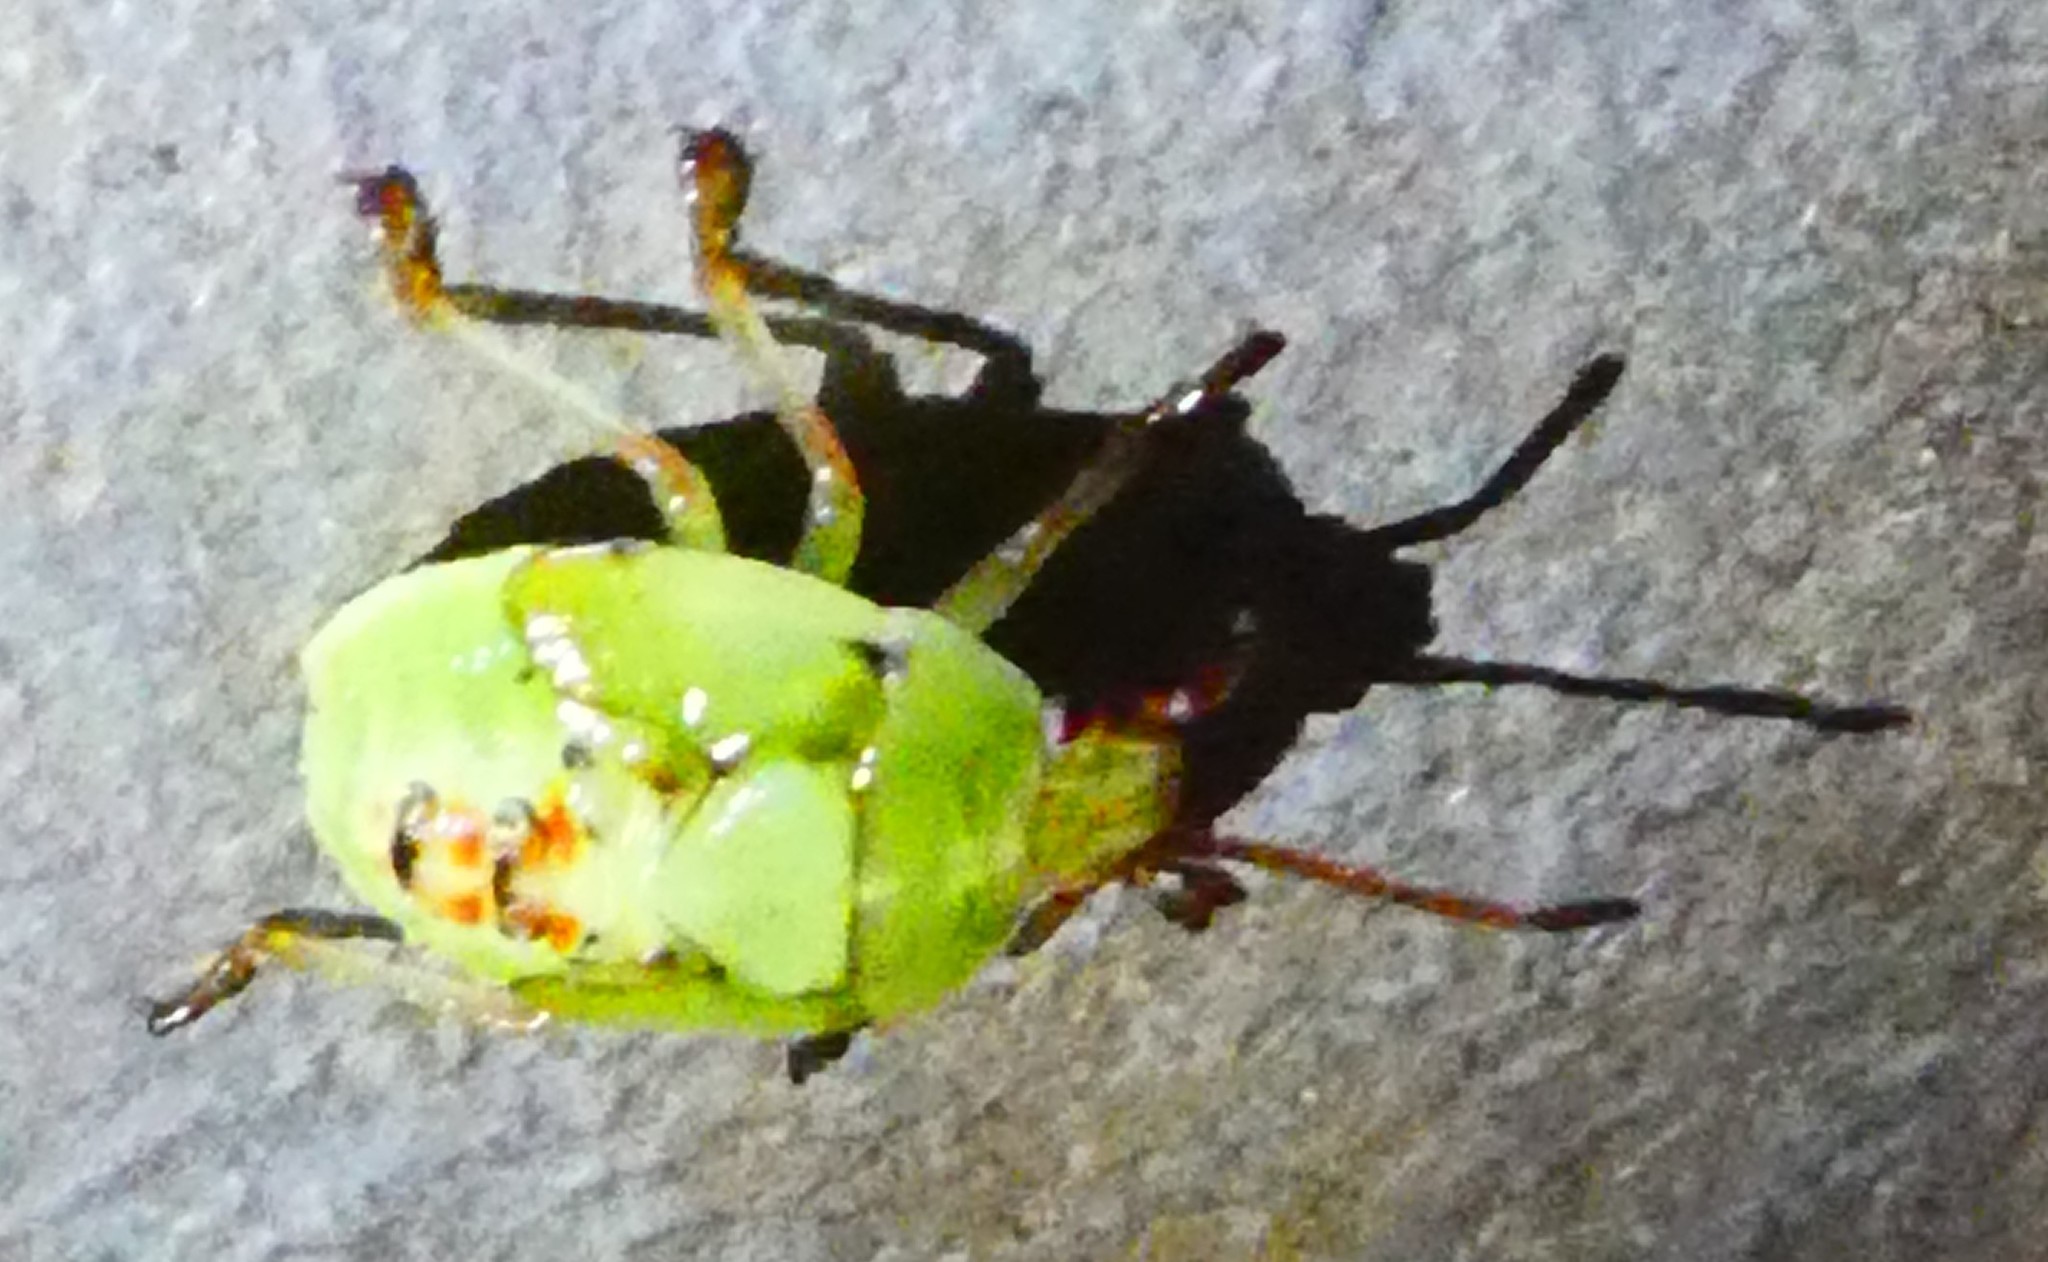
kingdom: Animalia
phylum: Arthropoda
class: Insecta
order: Hemiptera
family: Acanthosomatidae
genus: Elasmostethus
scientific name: Elasmostethus interstinctus
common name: Birch shieldbug
